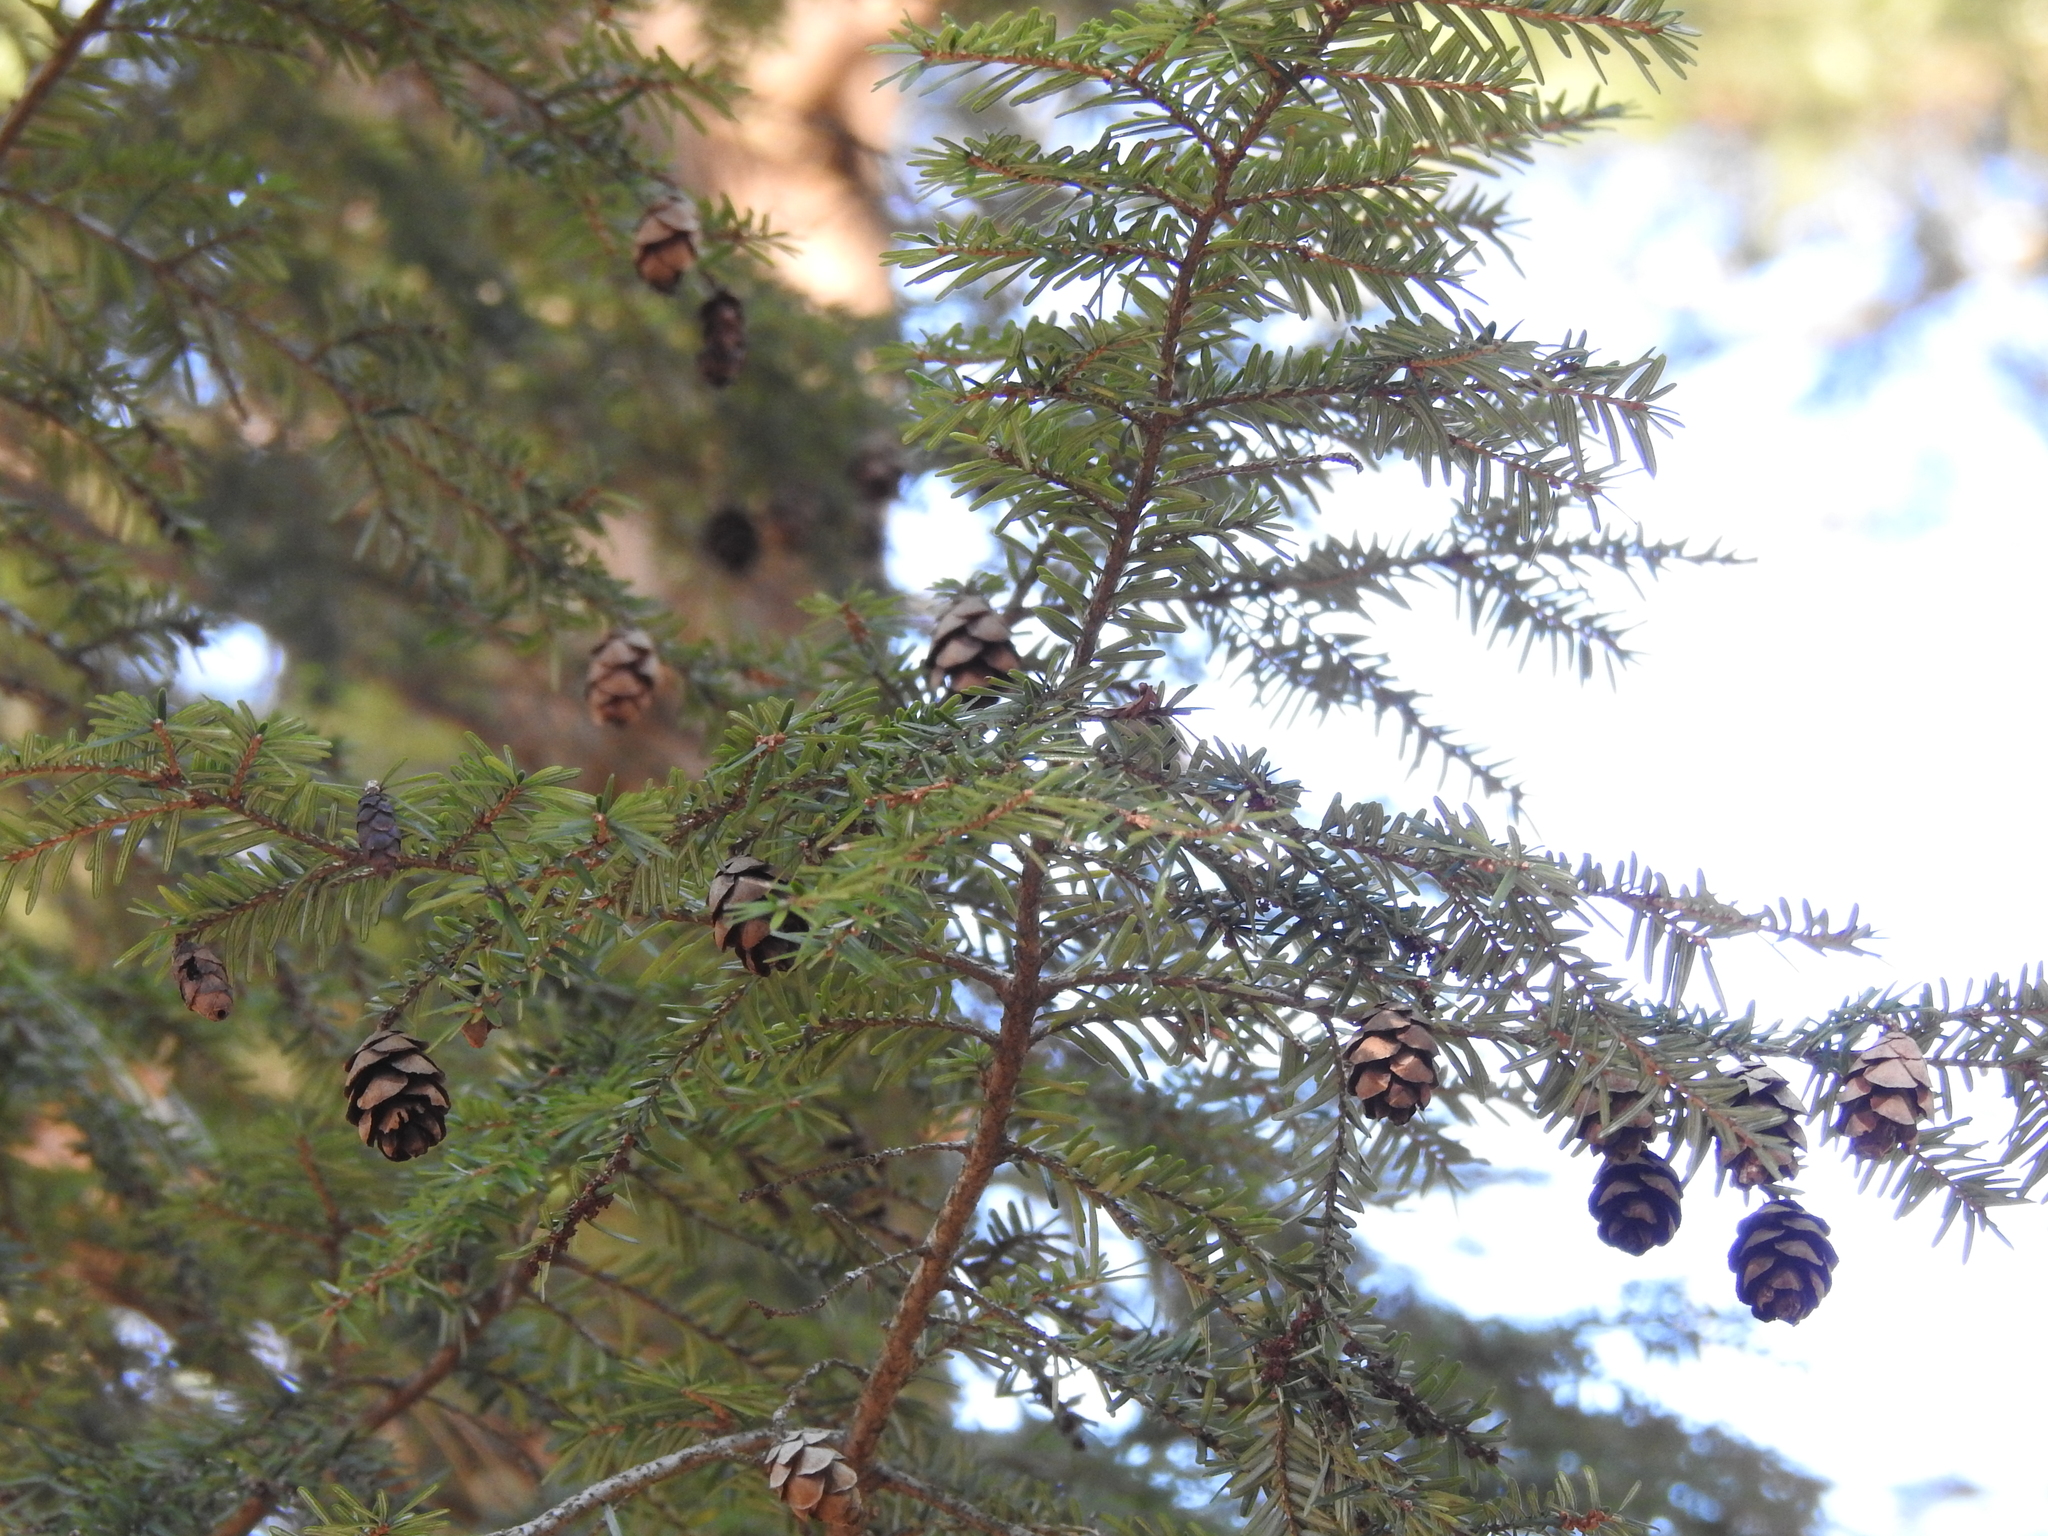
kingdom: Plantae
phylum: Tracheophyta
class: Pinopsida
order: Pinales
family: Pinaceae
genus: Tsuga
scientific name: Tsuga canadensis
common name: Eastern hemlock
